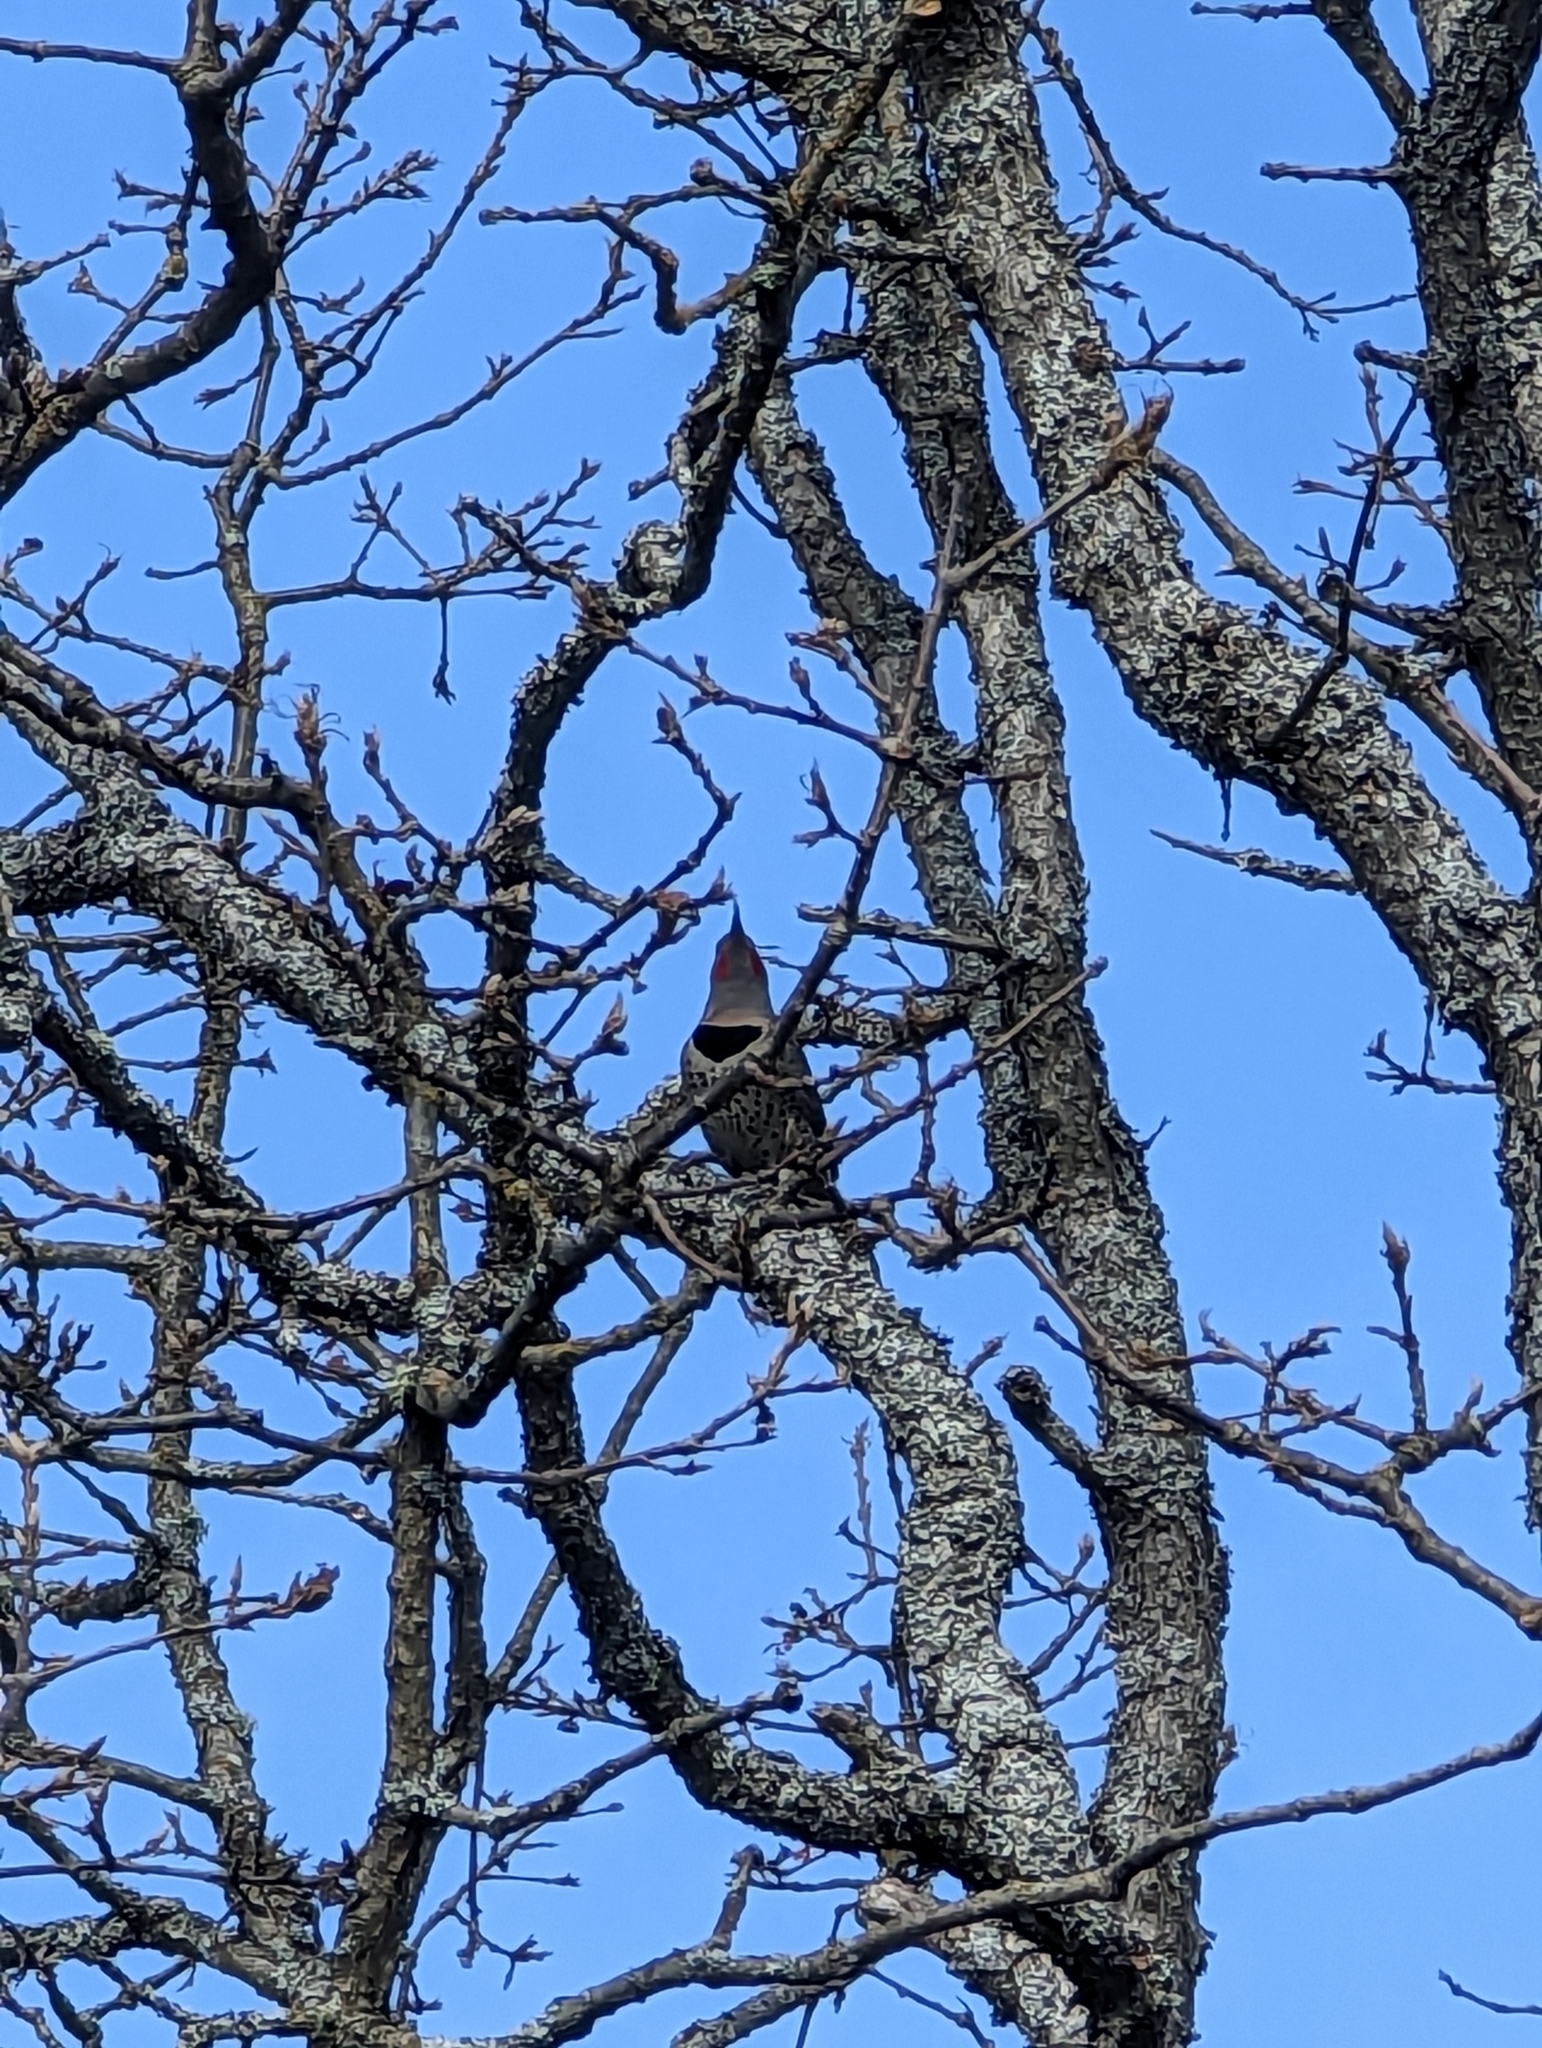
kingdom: Animalia
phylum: Chordata
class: Aves
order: Piciformes
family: Picidae
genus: Colaptes
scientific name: Colaptes auratus
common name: Northern flicker
